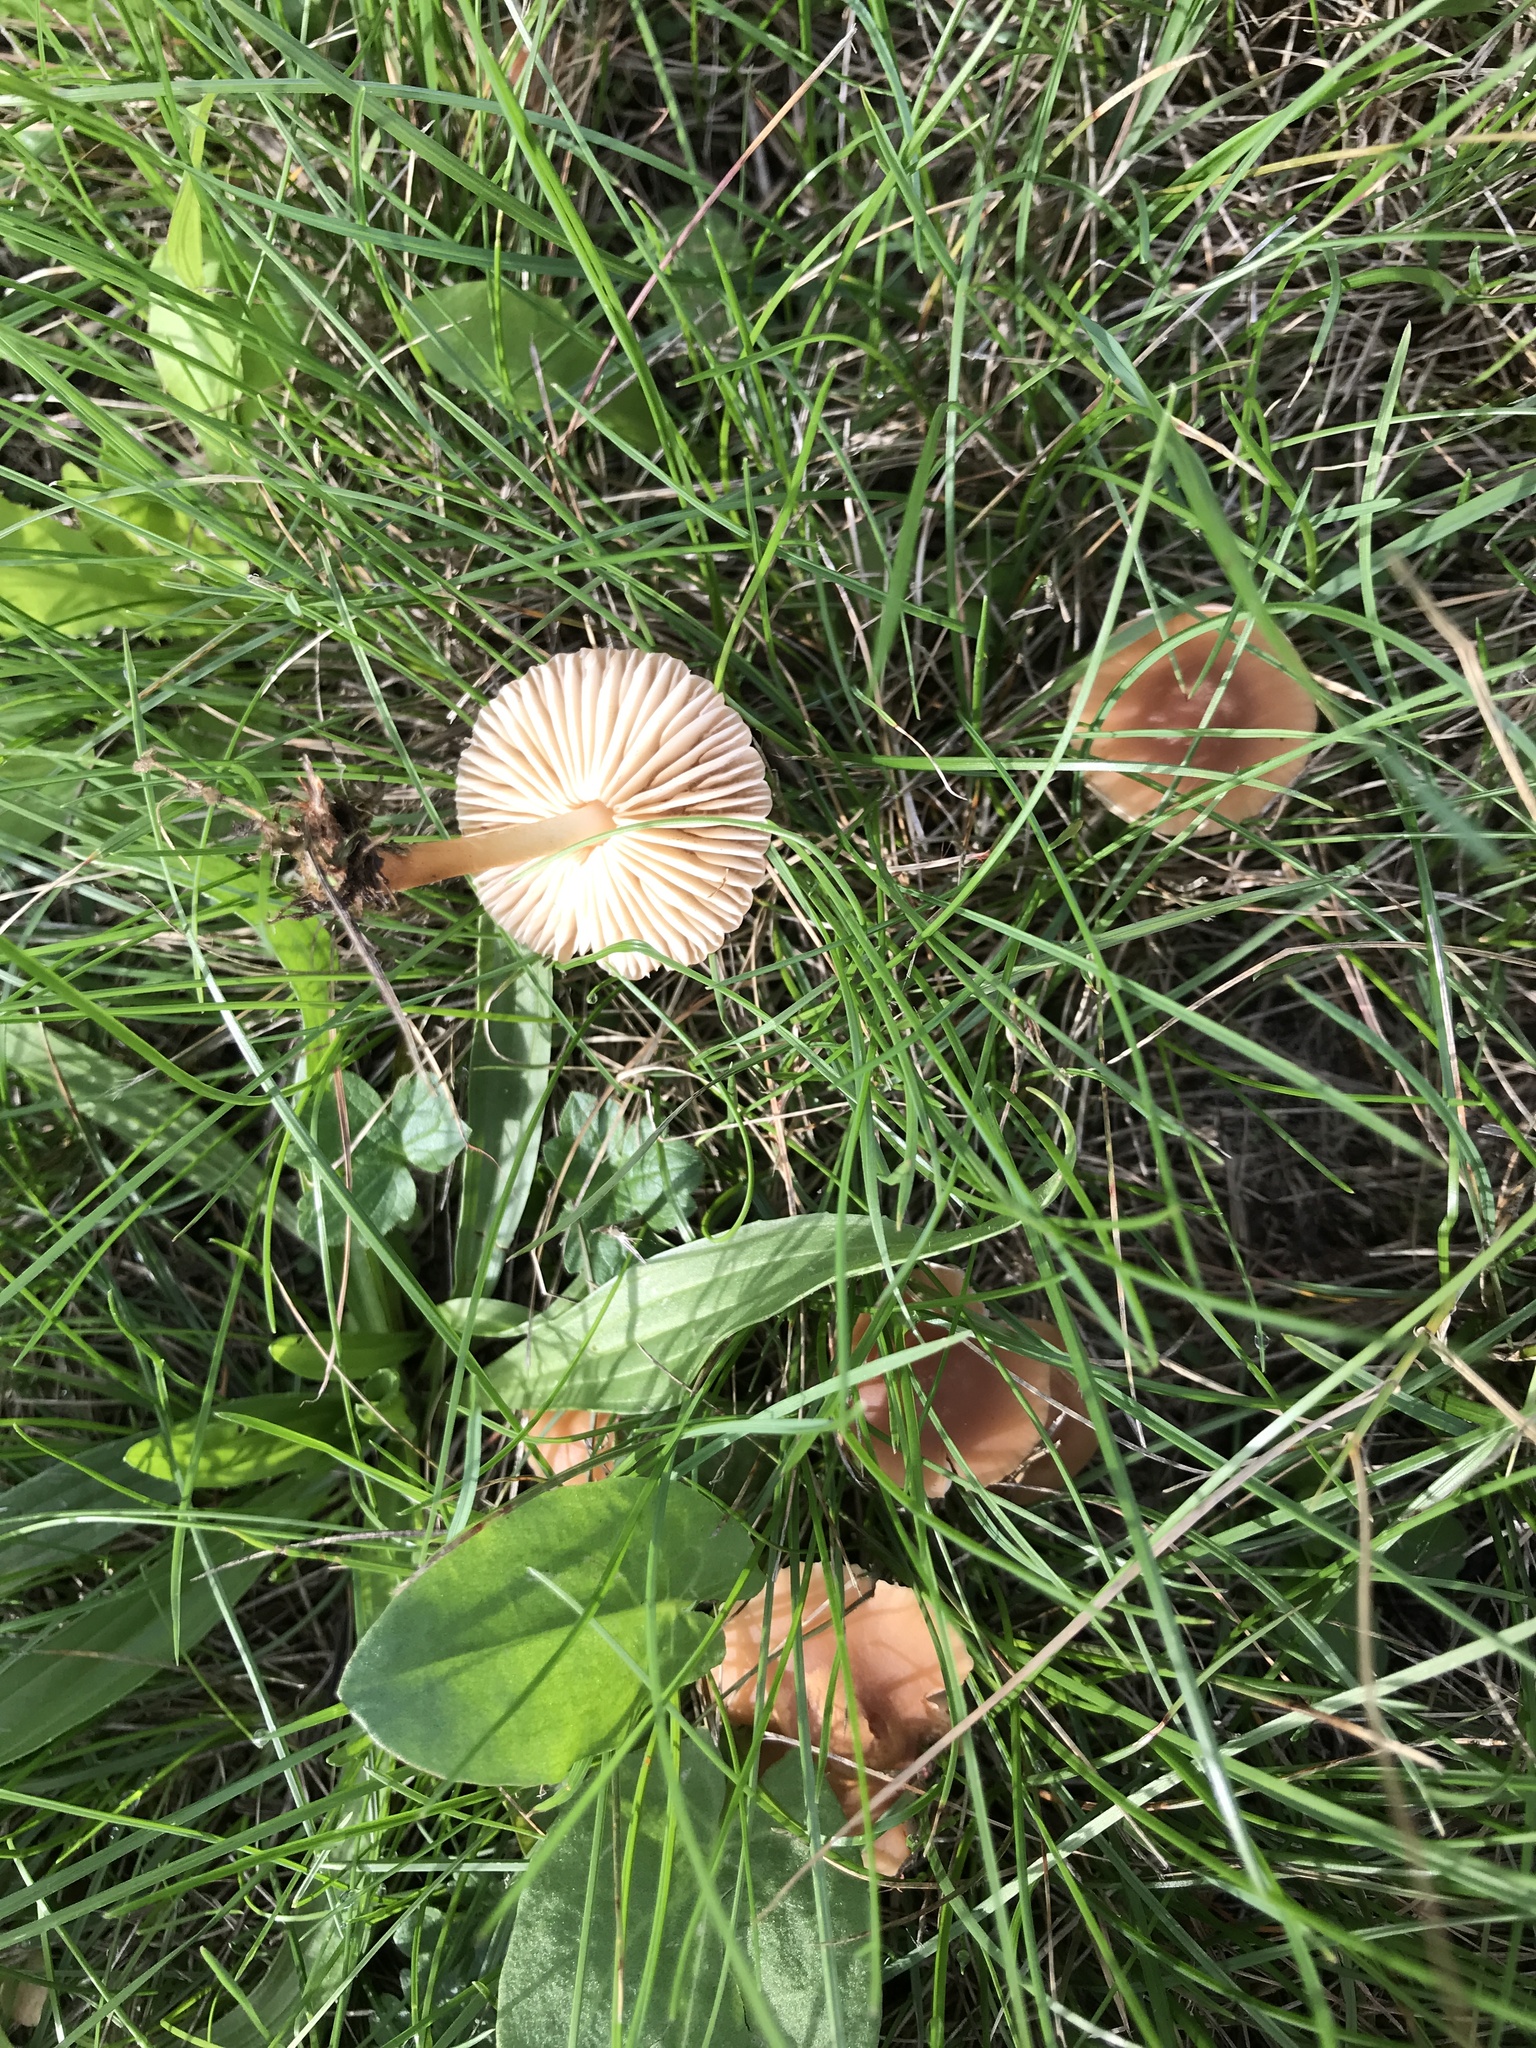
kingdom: Fungi
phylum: Basidiomycota
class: Agaricomycetes
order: Agaricales
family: Marasmiaceae
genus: Marasmius
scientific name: Marasmius oreades
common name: Fairy ring champignon
